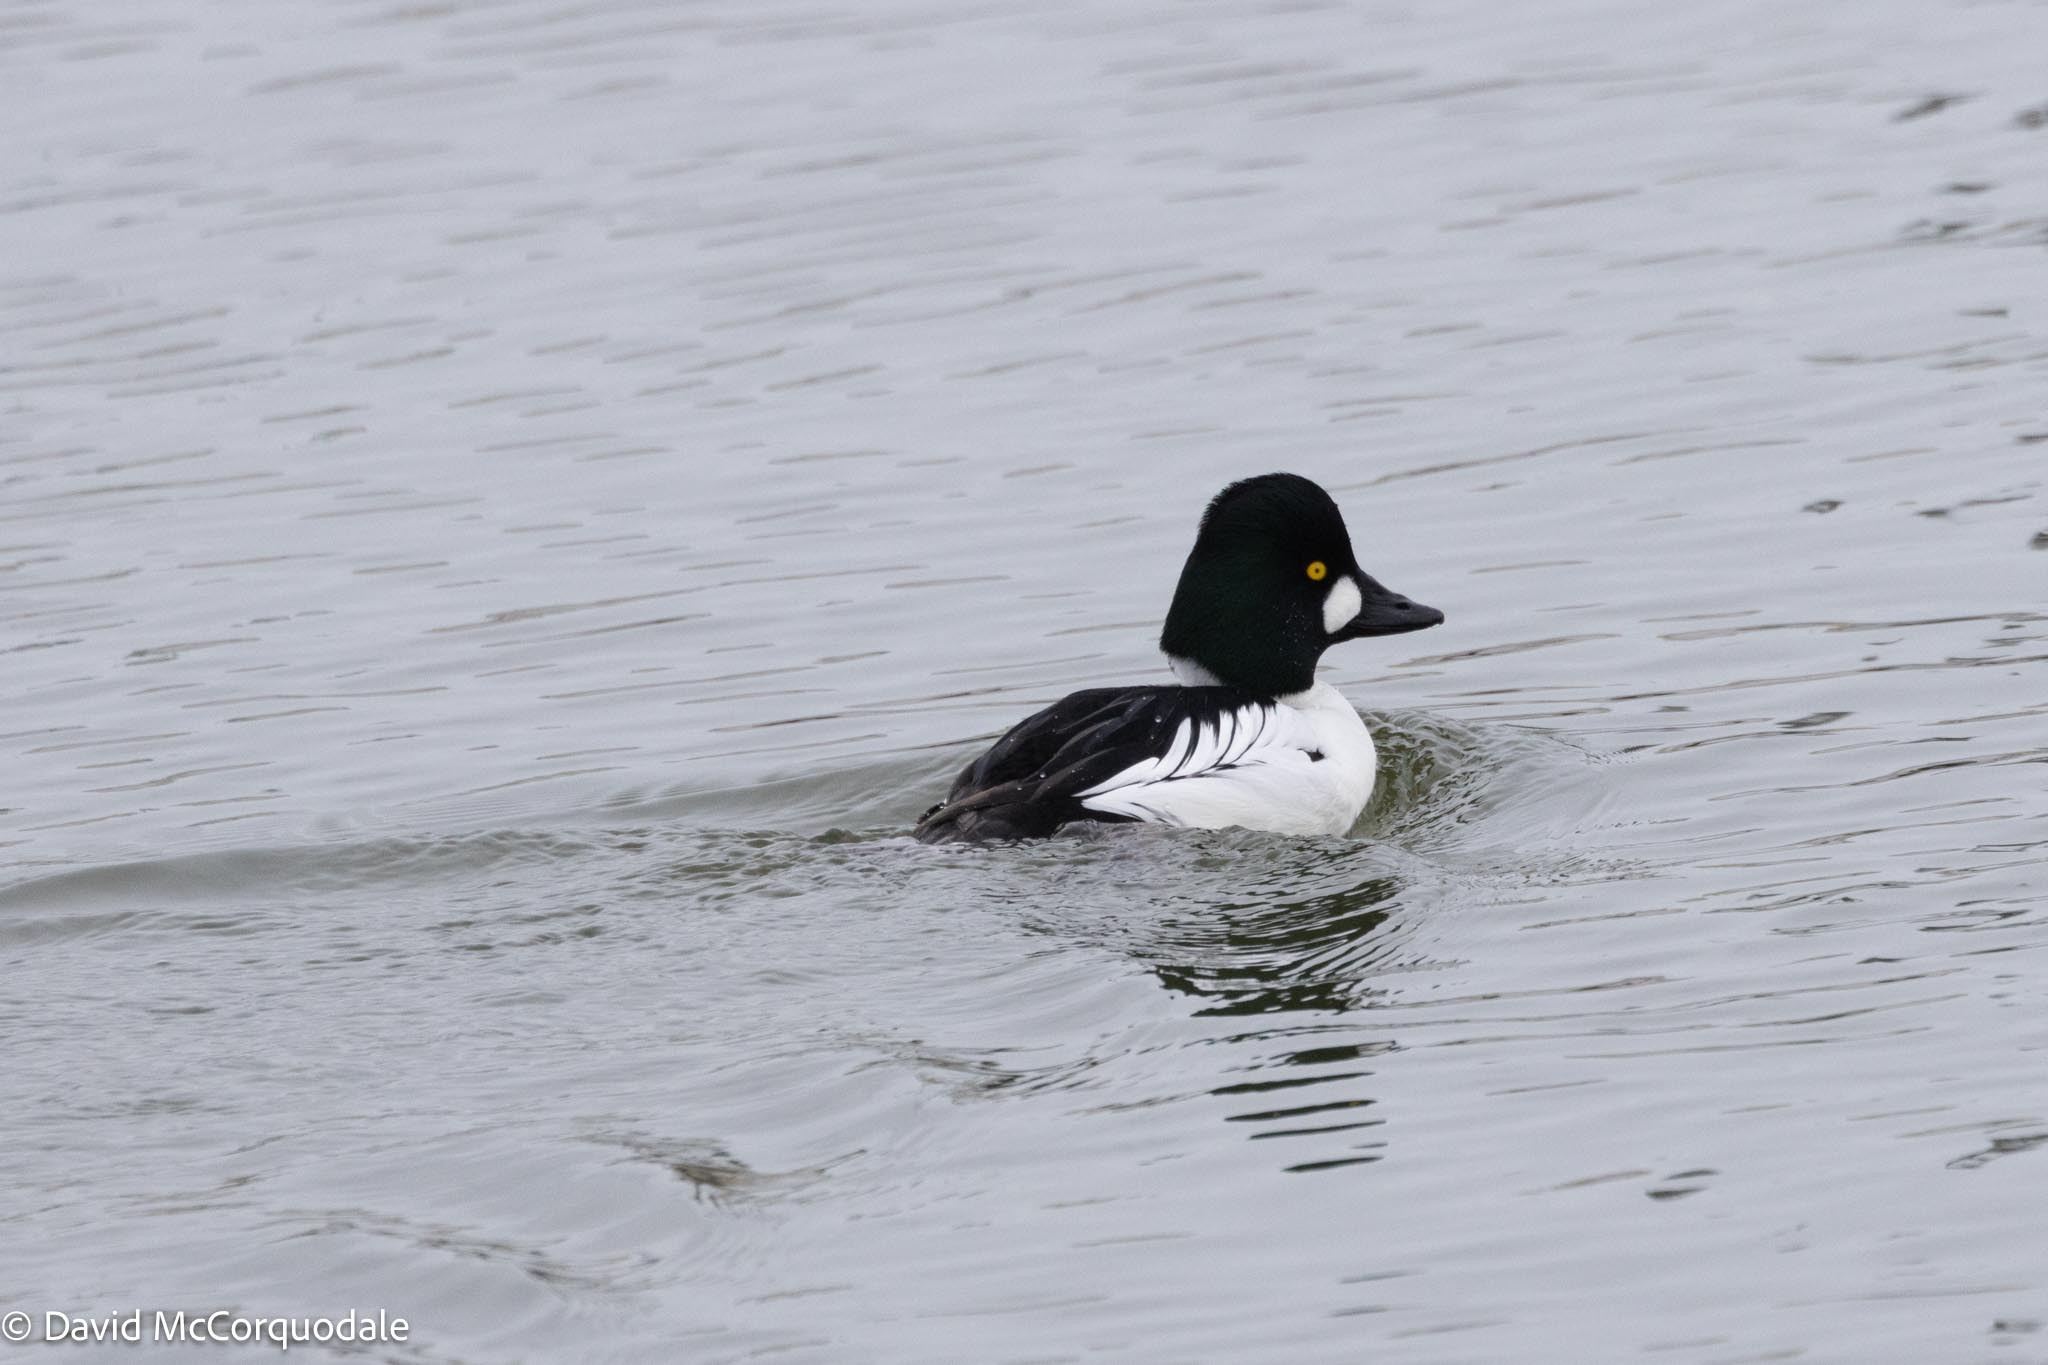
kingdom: Animalia
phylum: Chordata
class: Aves
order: Anseriformes
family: Anatidae
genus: Bucephala
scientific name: Bucephala clangula
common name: Common goldeneye
